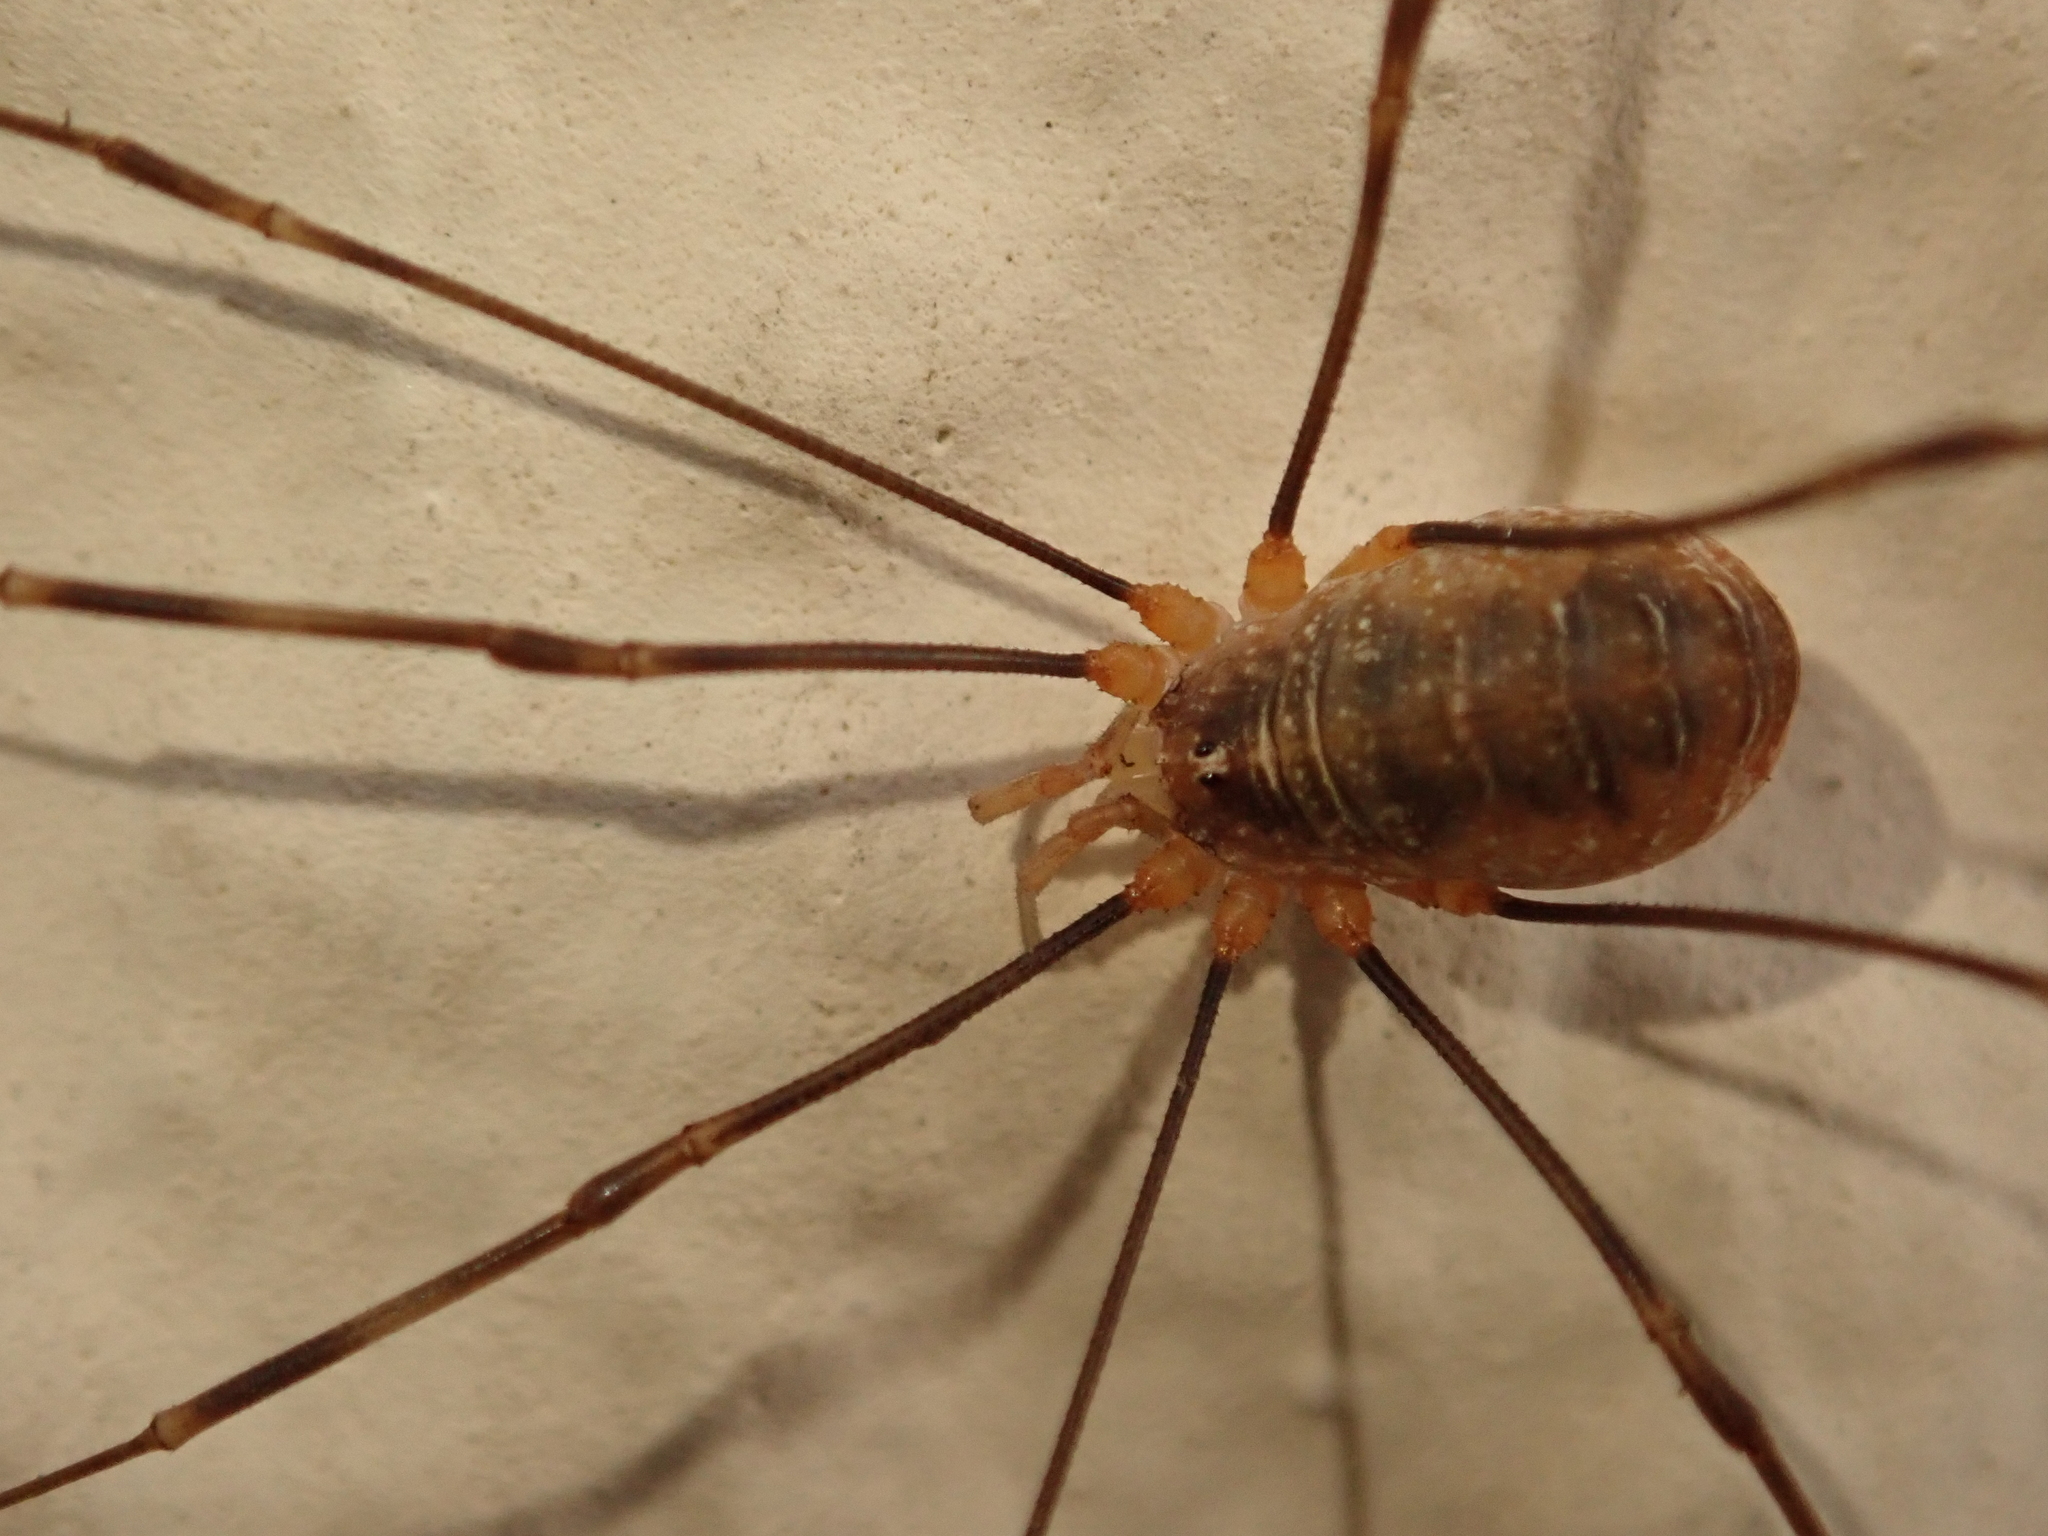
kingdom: Animalia
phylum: Arthropoda
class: Arachnida
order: Opiliones
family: Phalangiidae
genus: Opilio
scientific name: Opilio canestrinii
